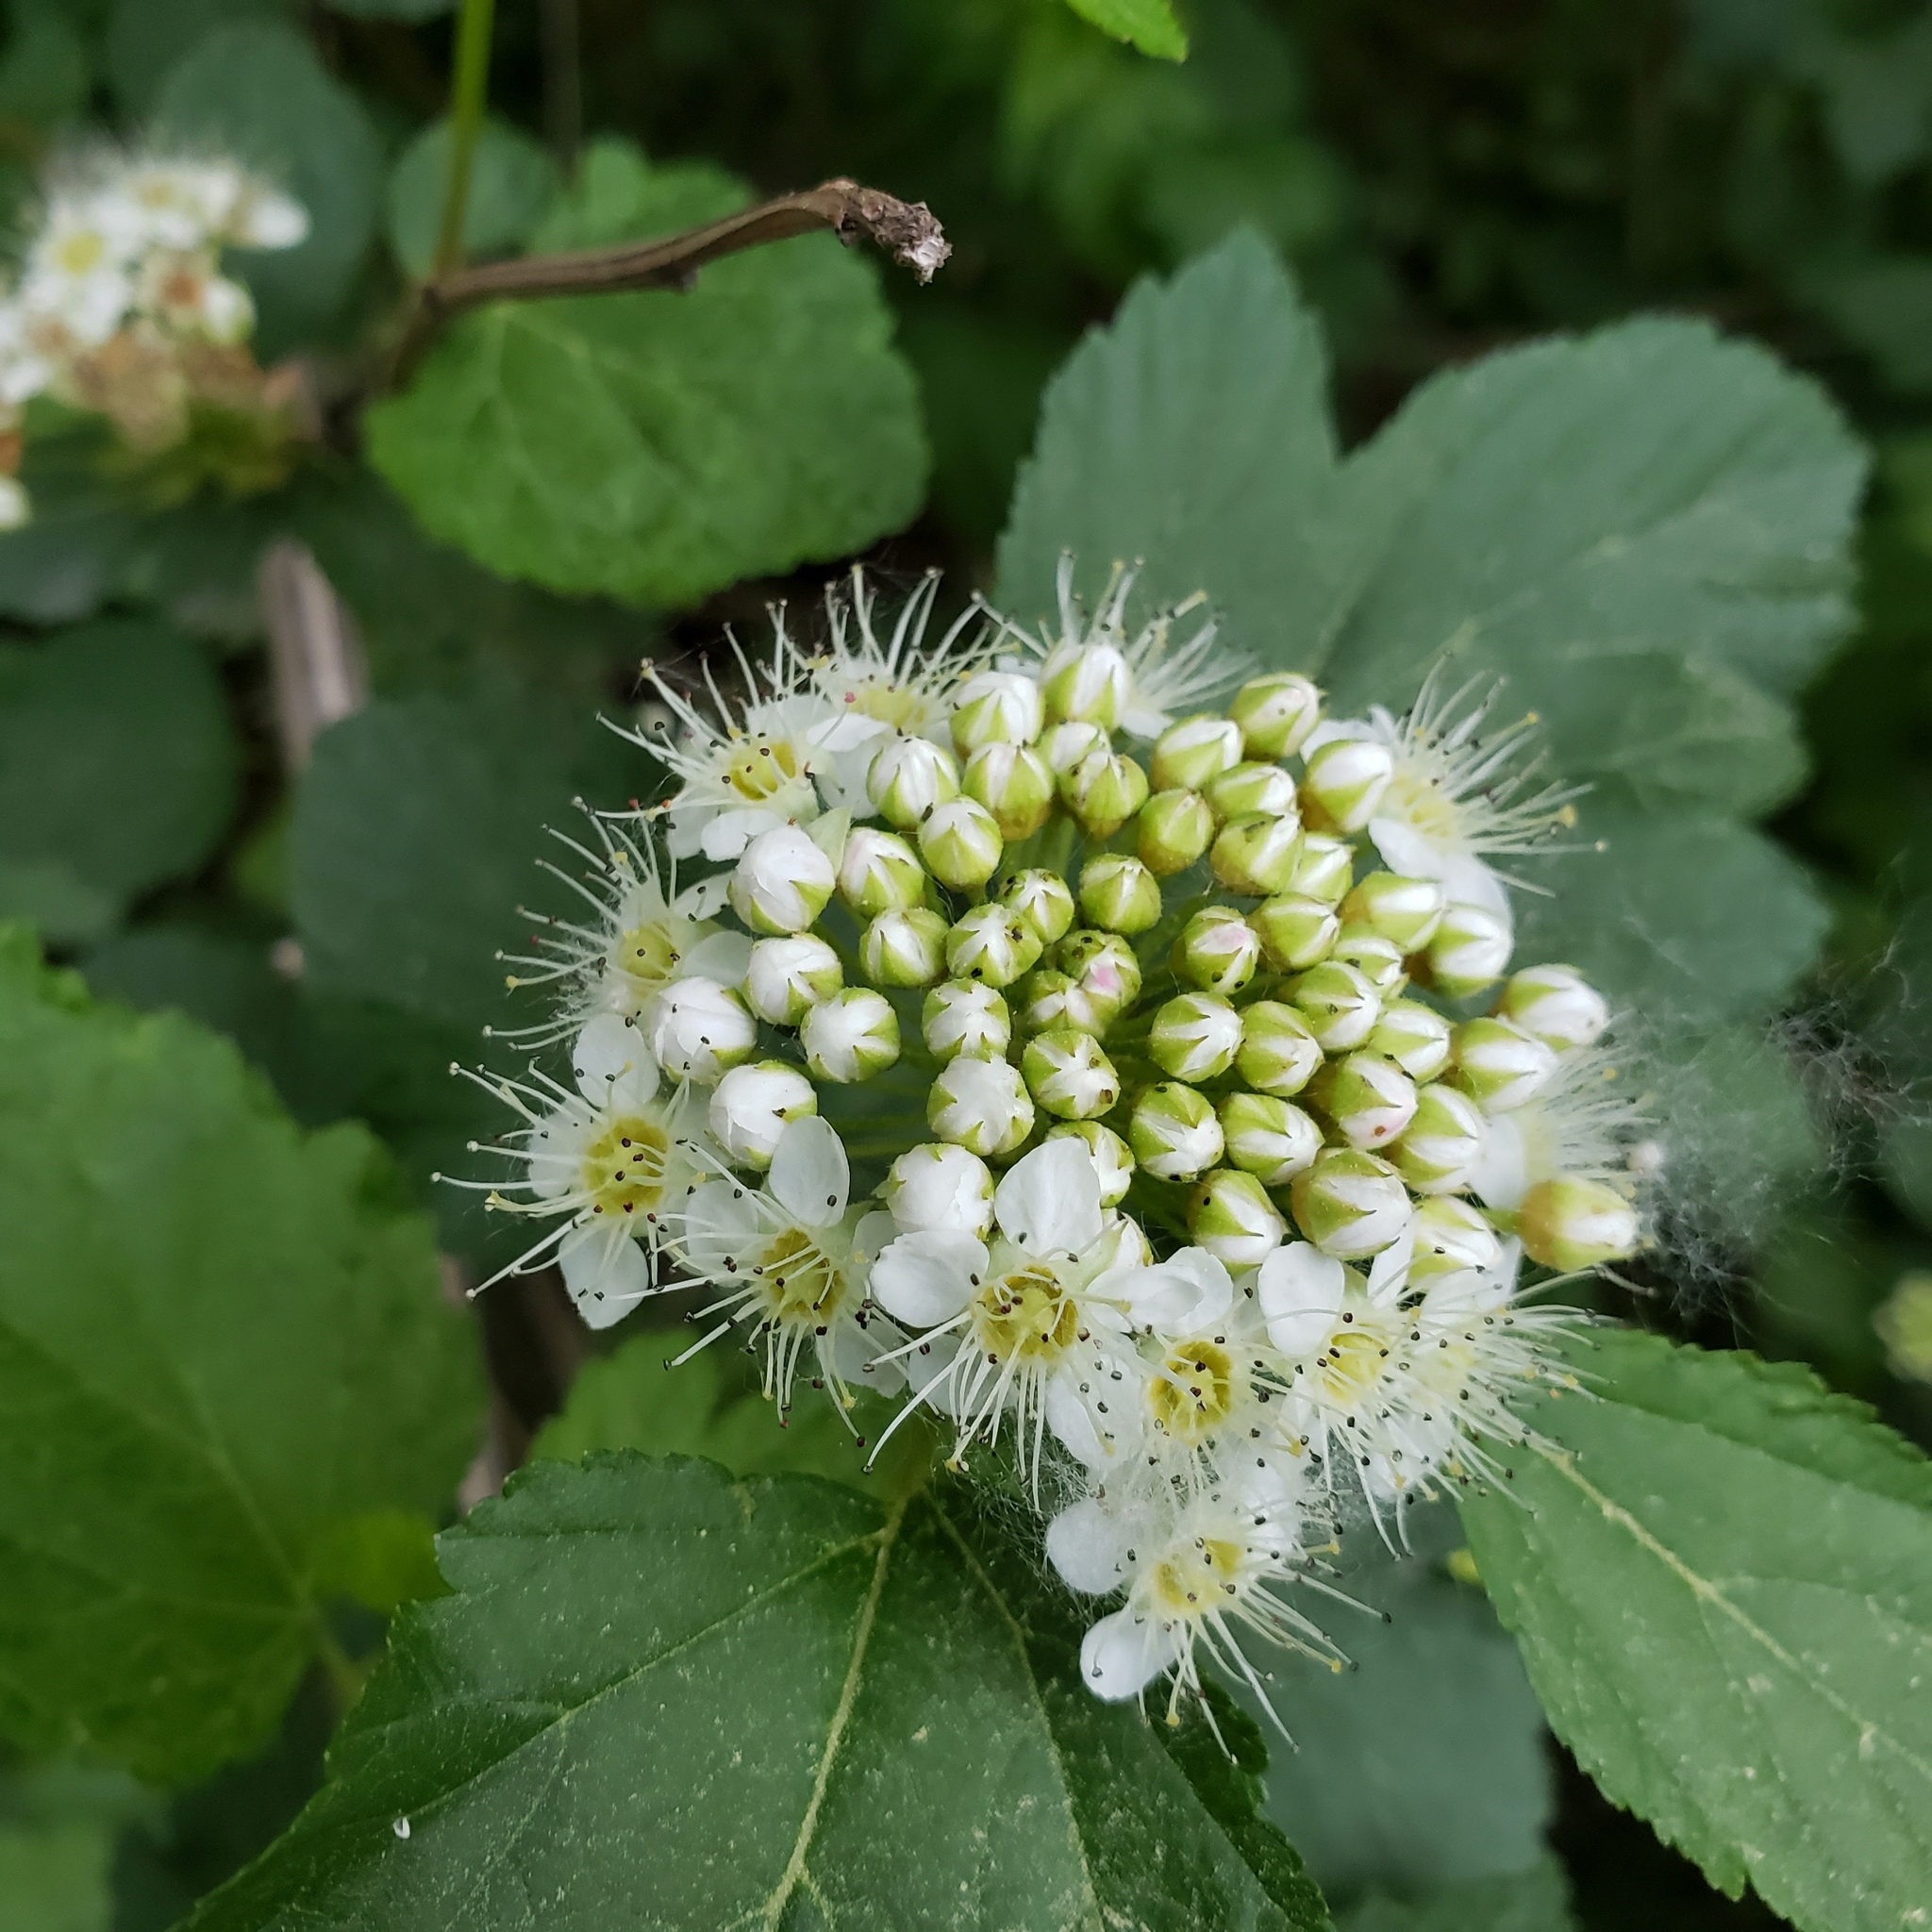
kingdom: Plantae
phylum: Tracheophyta
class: Magnoliopsida
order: Rosales
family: Rosaceae
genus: Physocarpus
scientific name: Physocarpus opulifolius
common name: Ninebark
